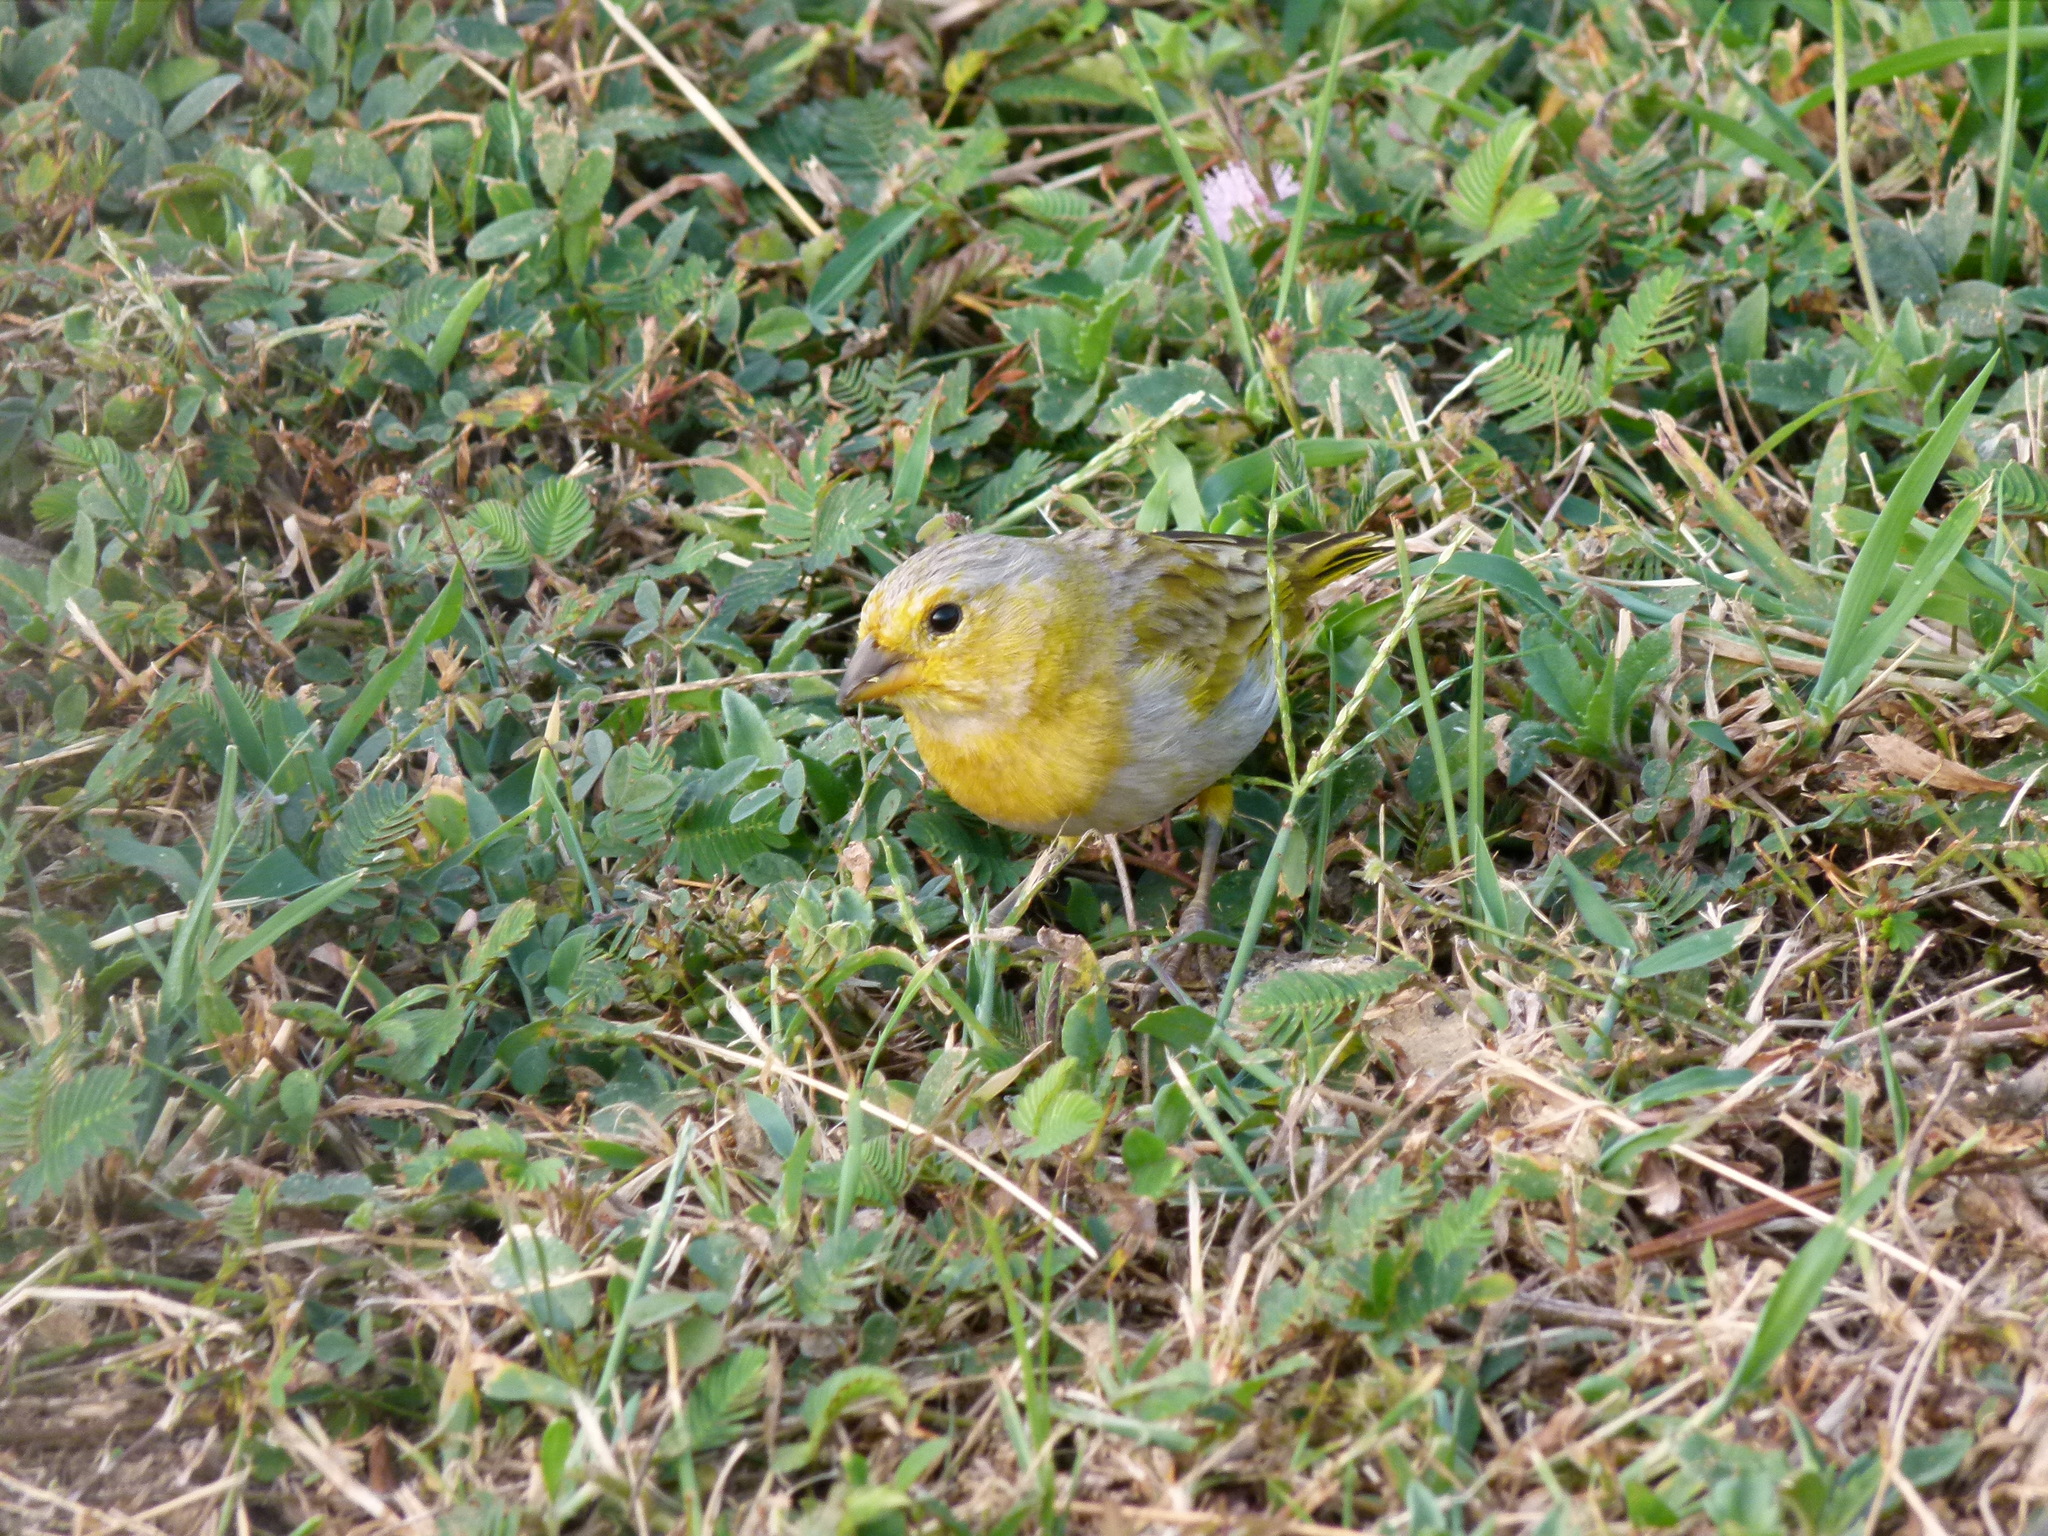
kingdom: Animalia
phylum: Chordata
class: Aves
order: Passeriformes
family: Thraupidae
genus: Sicalis
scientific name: Sicalis flaveola
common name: Saffron finch
